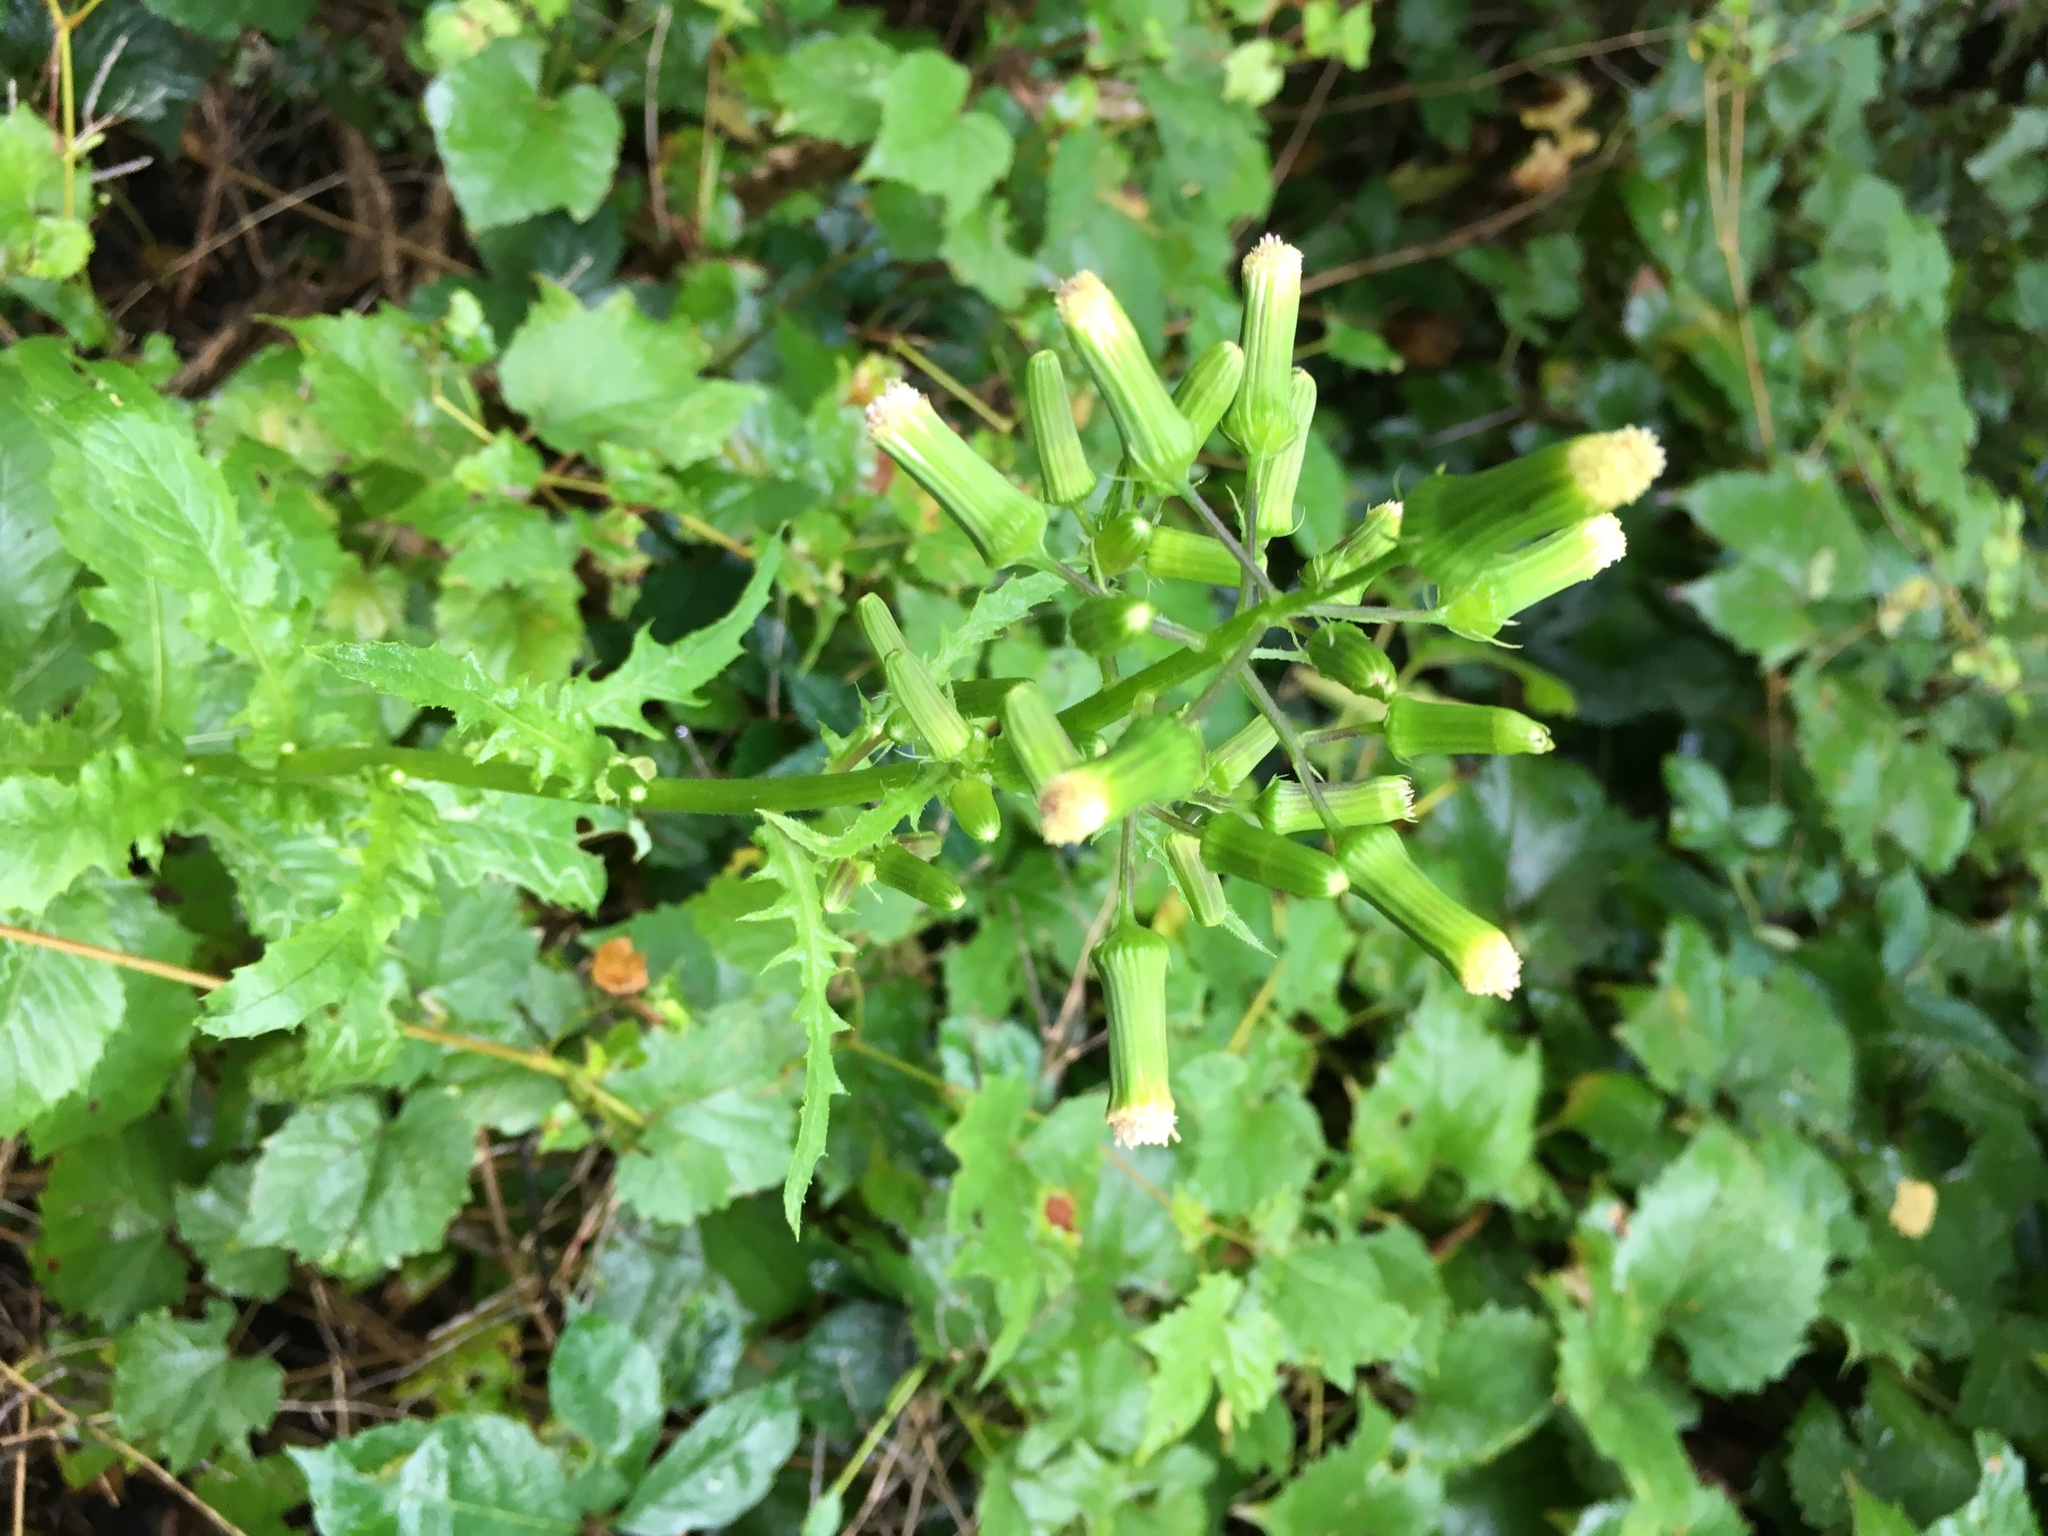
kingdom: Plantae
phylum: Tracheophyta
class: Magnoliopsida
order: Asterales
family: Asteraceae
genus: Erechtites
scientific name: Erechtites hieraciifolius
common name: American burnweed
